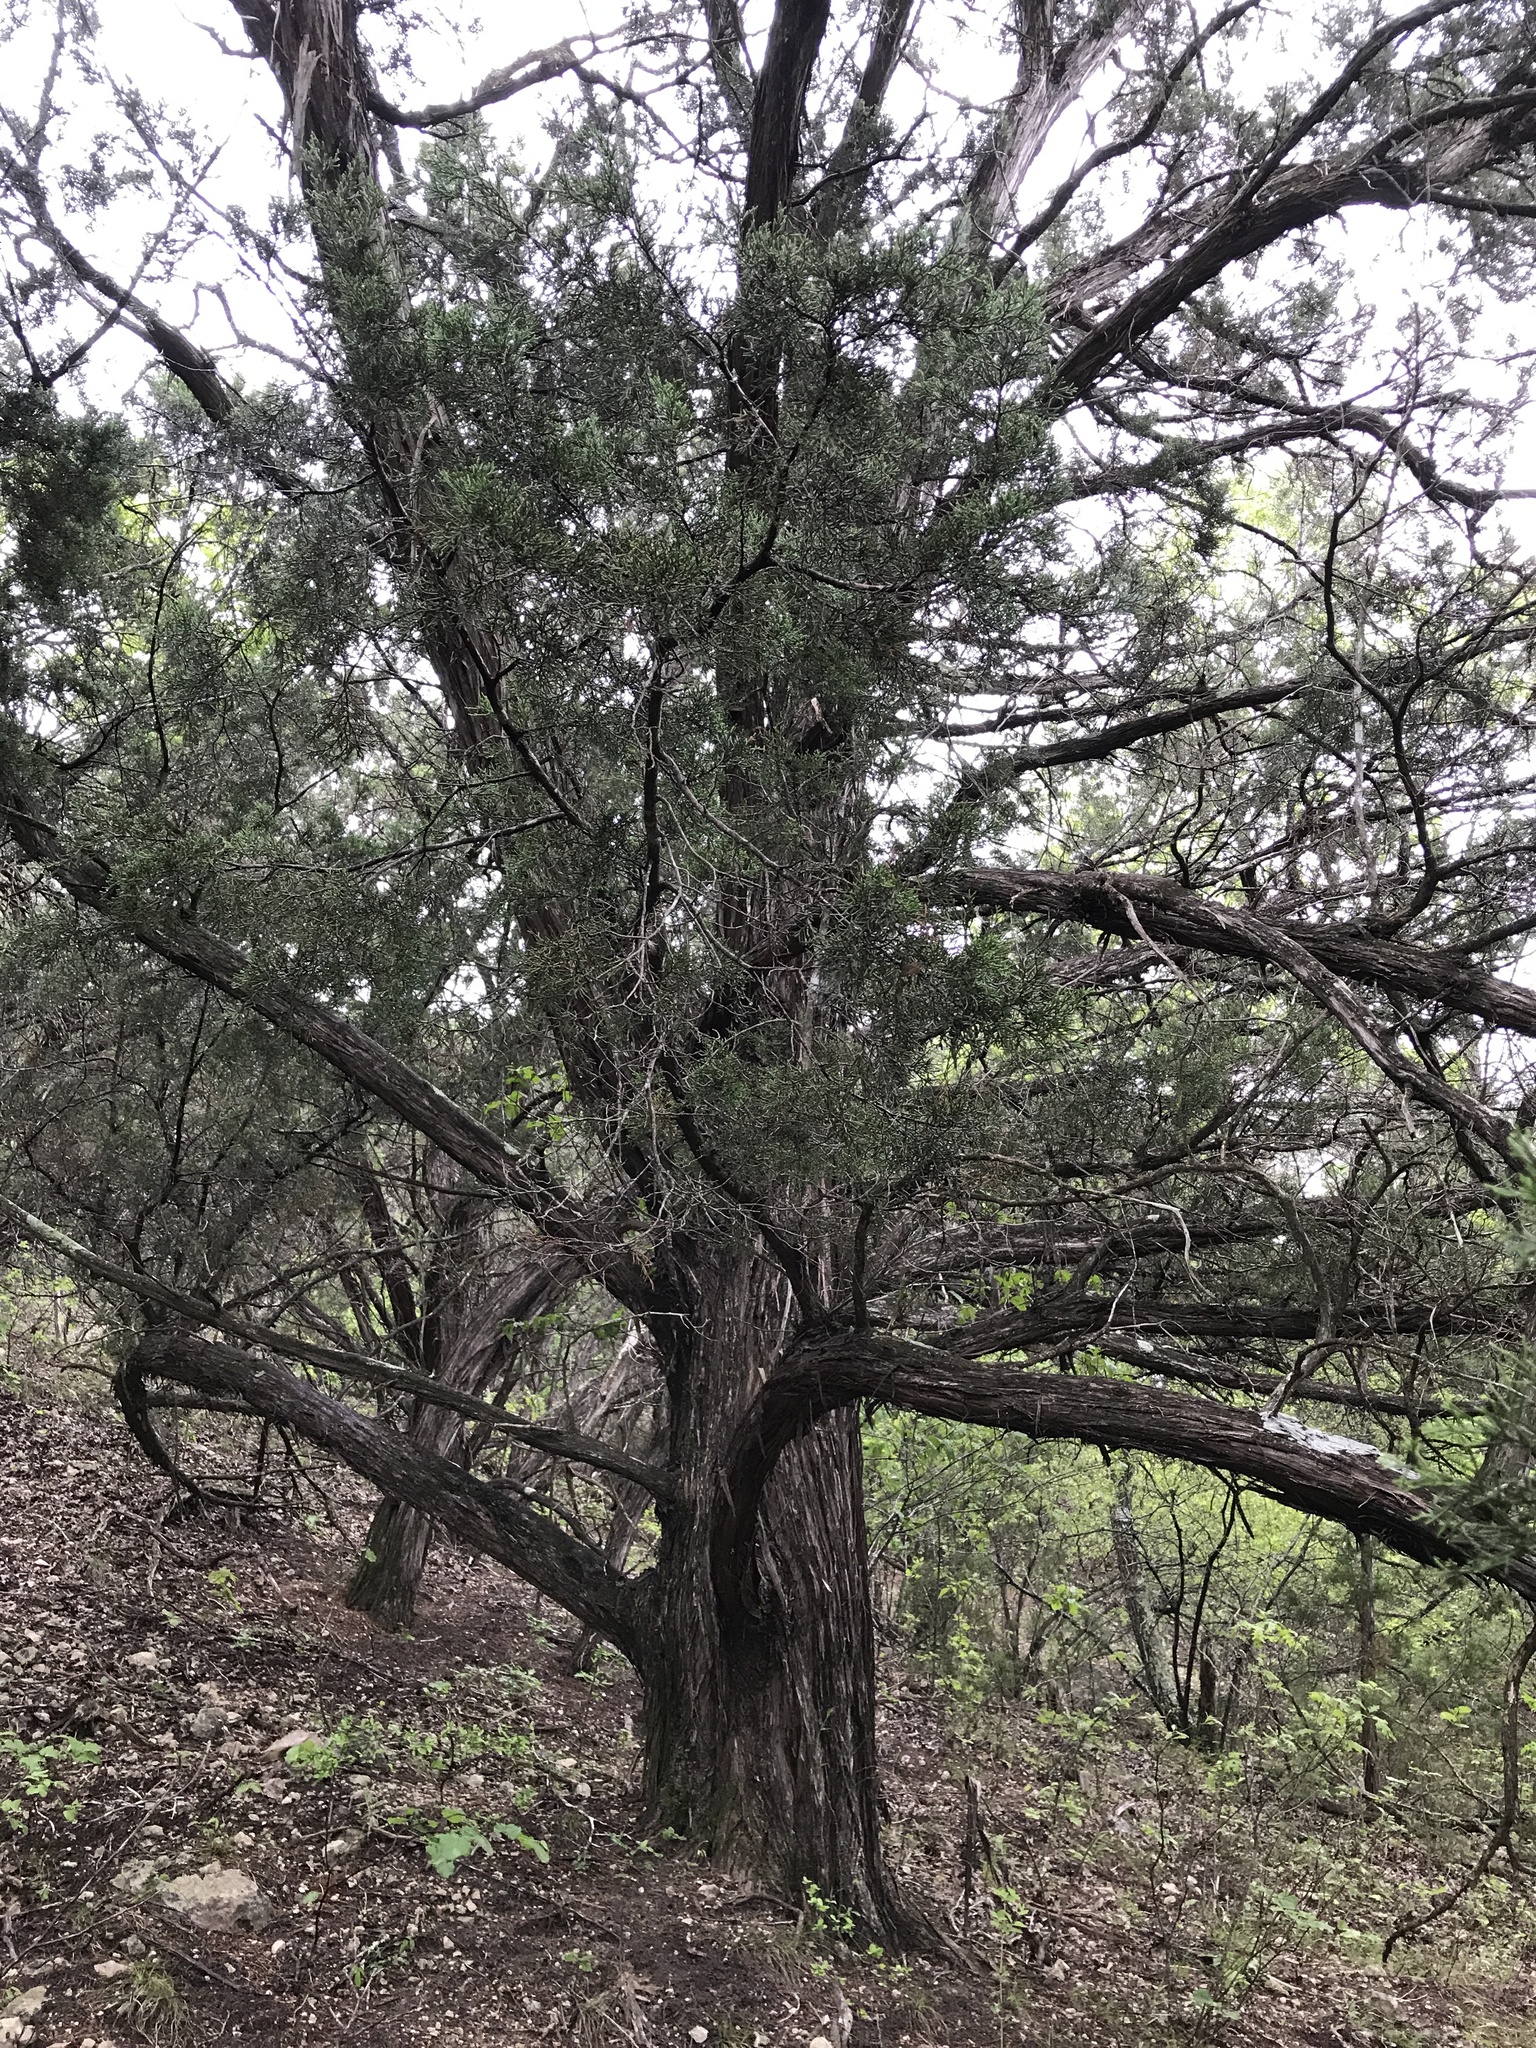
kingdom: Plantae
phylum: Tracheophyta
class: Pinopsida
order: Pinales
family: Cupressaceae
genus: Juniperus
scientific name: Juniperus ashei
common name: Mexican juniper
